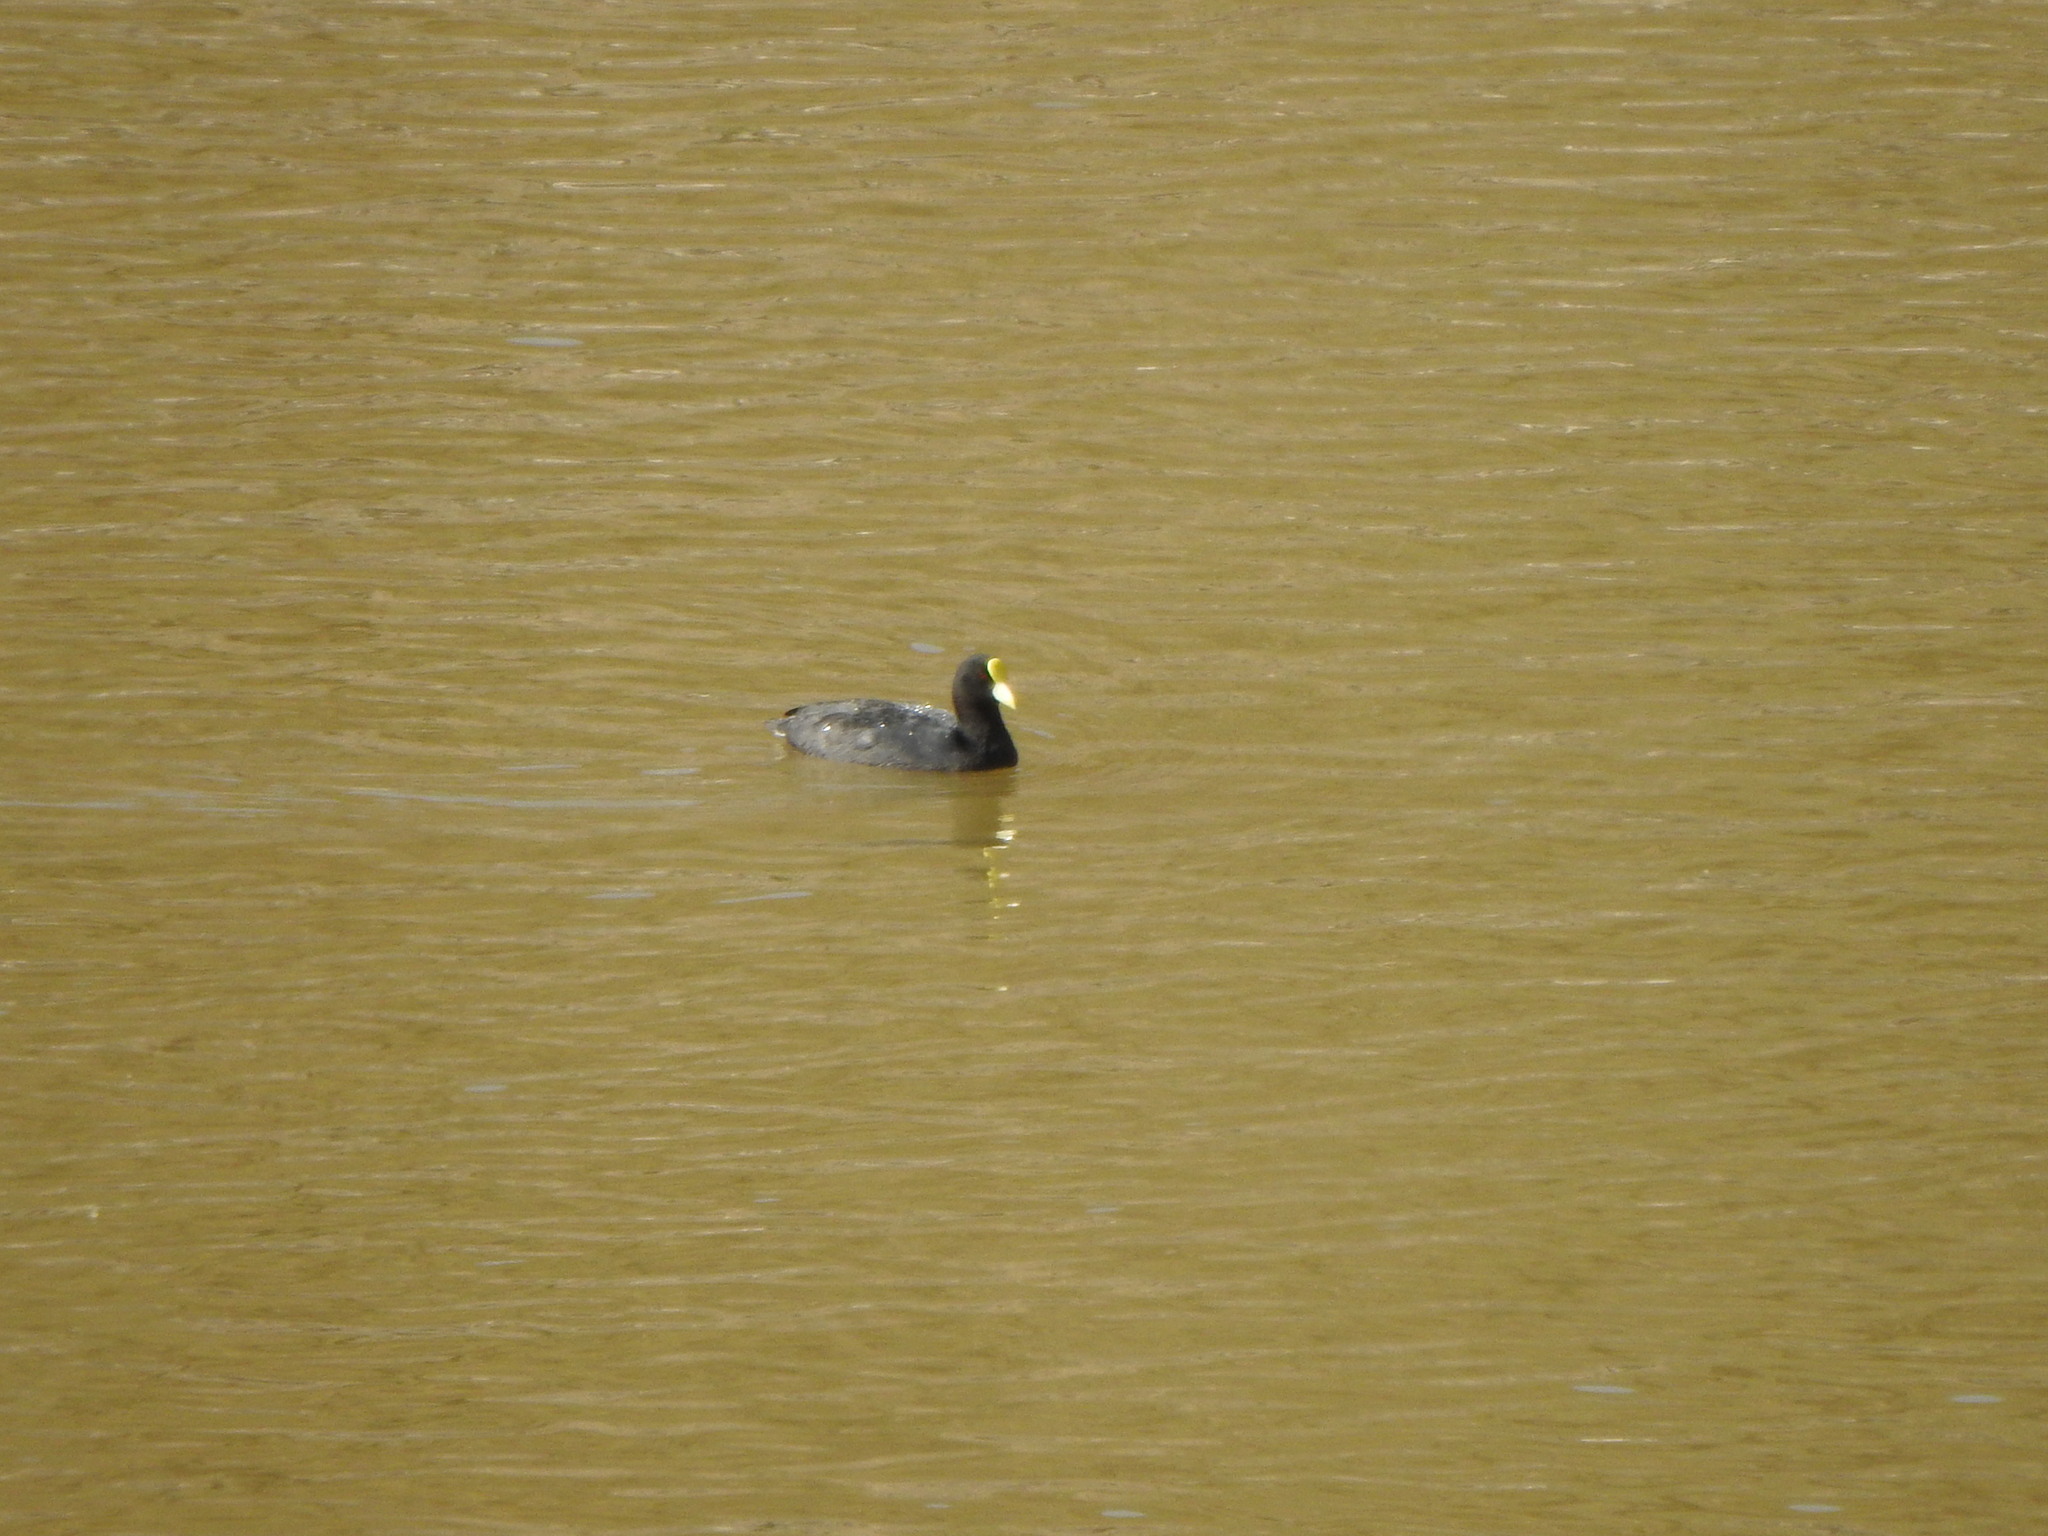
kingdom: Animalia
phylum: Chordata
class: Aves
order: Gruiformes
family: Rallidae
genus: Fulica
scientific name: Fulica leucoptera
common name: White-winged coot
